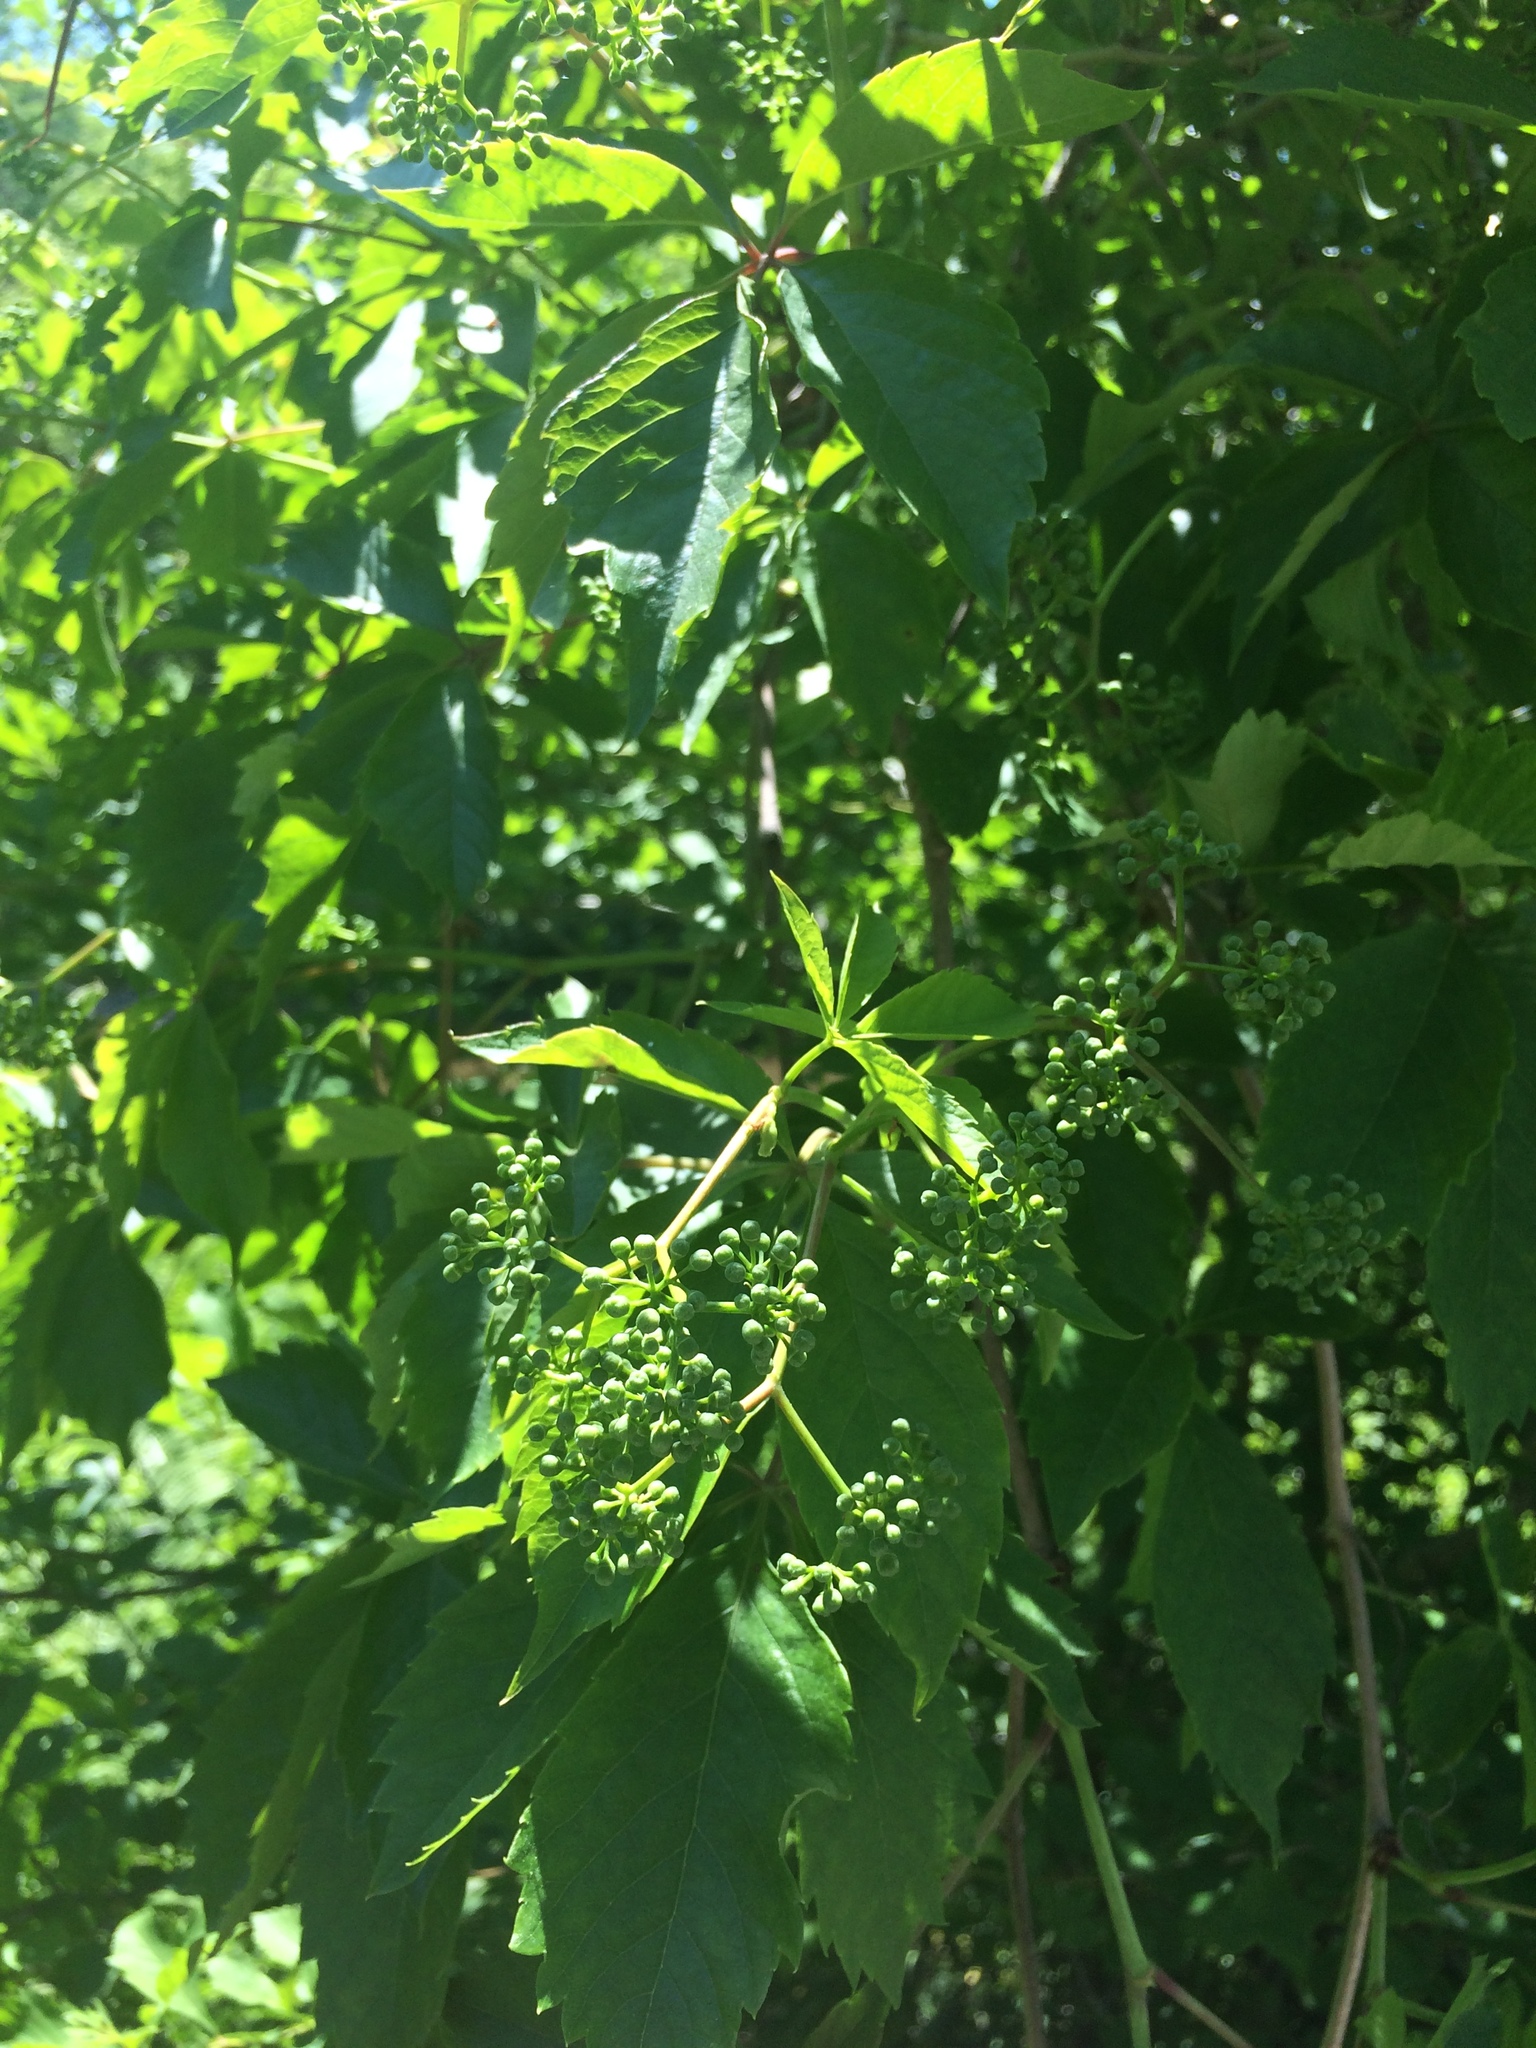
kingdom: Plantae
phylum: Tracheophyta
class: Magnoliopsida
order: Vitales
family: Vitaceae
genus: Parthenocissus
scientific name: Parthenocissus quinquefolia
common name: Virginia-creeper
